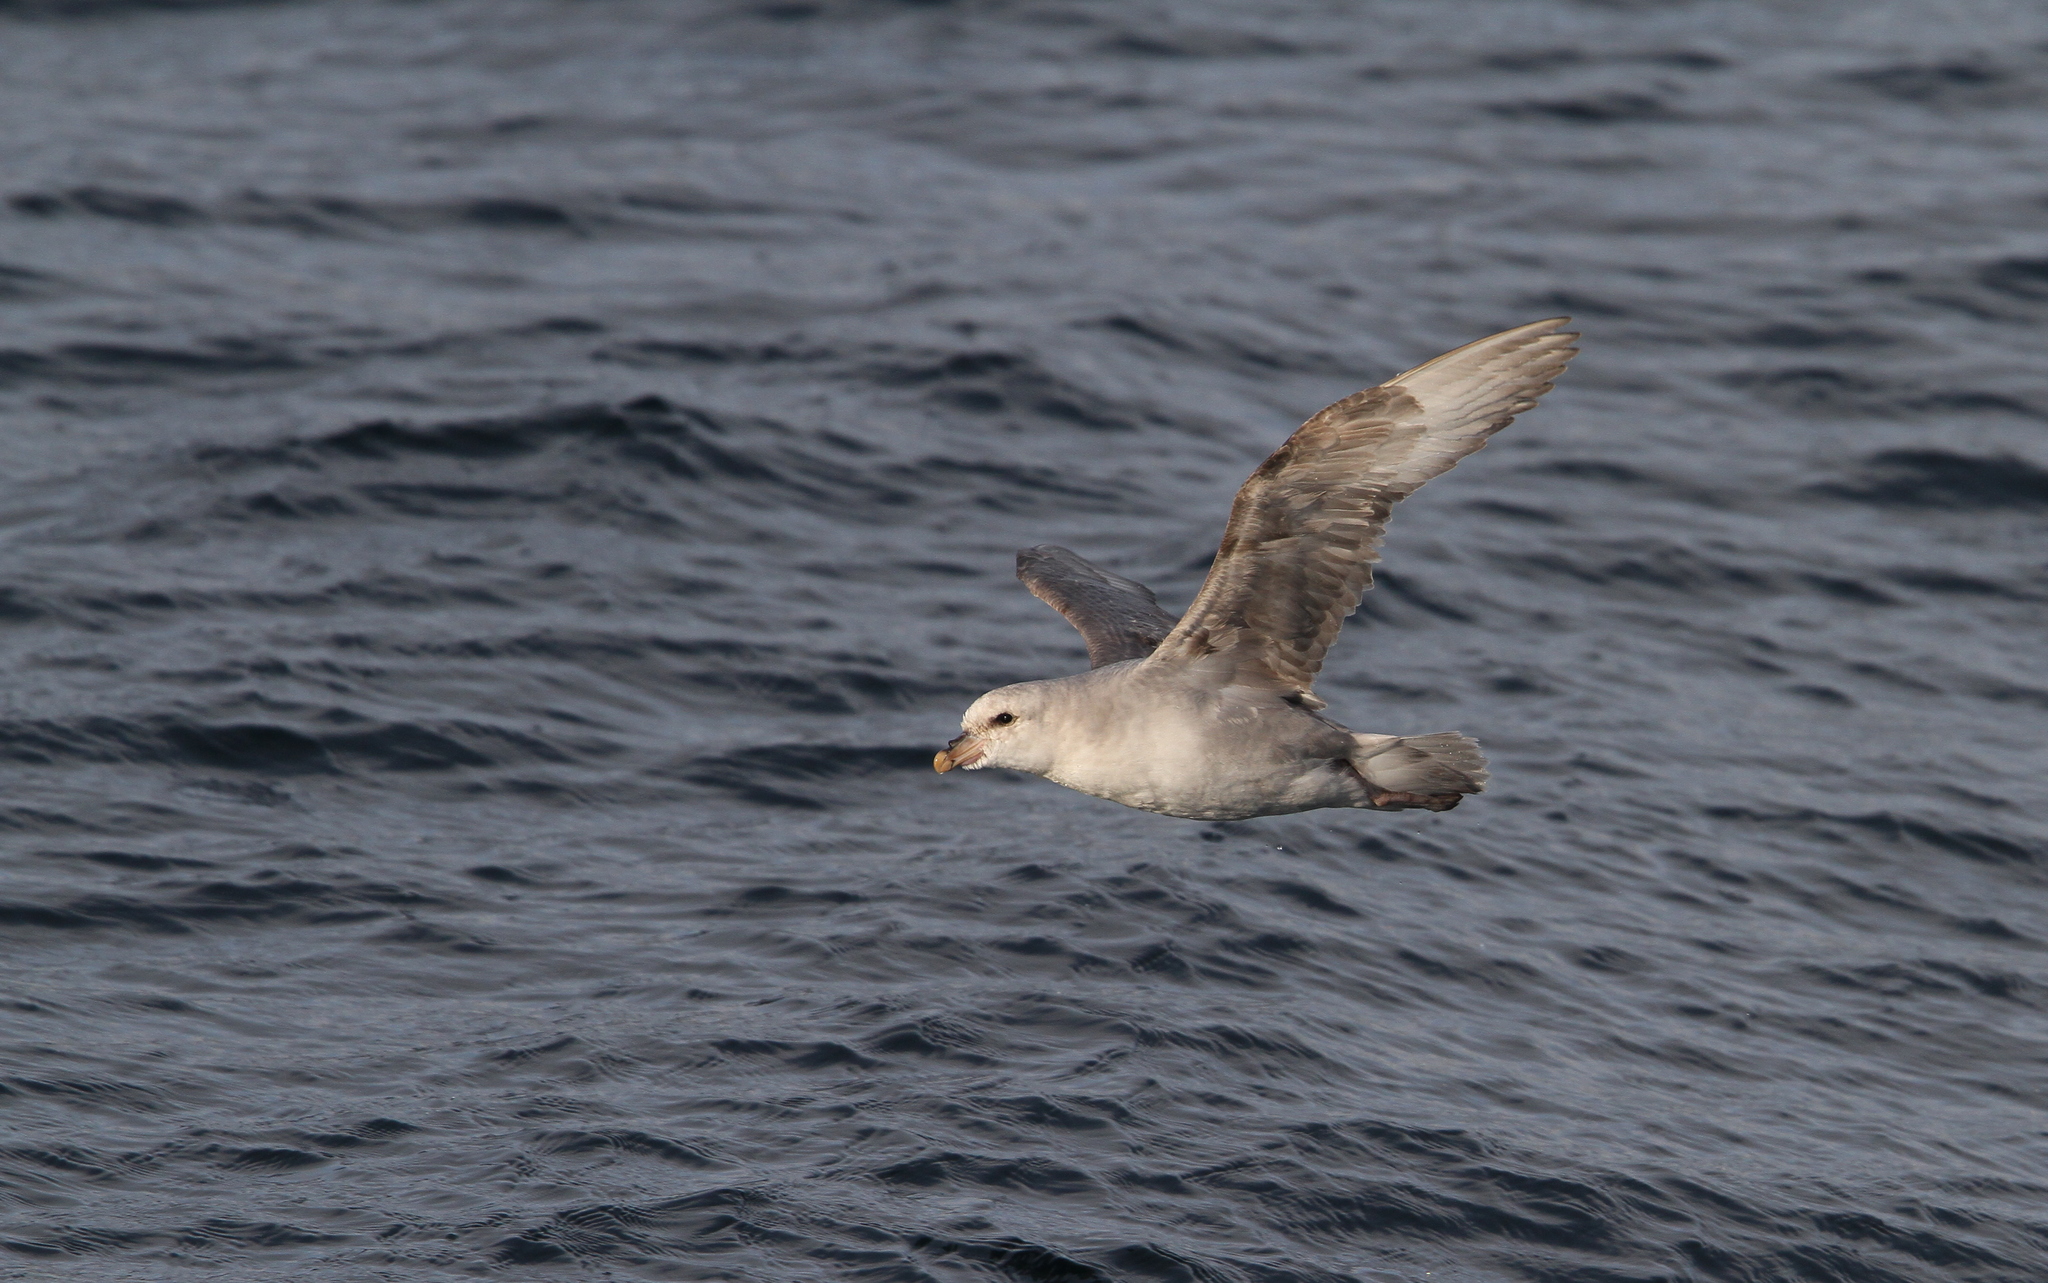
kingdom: Animalia
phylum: Chordata
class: Aves
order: Procellariiformes
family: Procellariidae
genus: Fulmarus
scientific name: Fulmarus glacialis
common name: Northern fulmar
